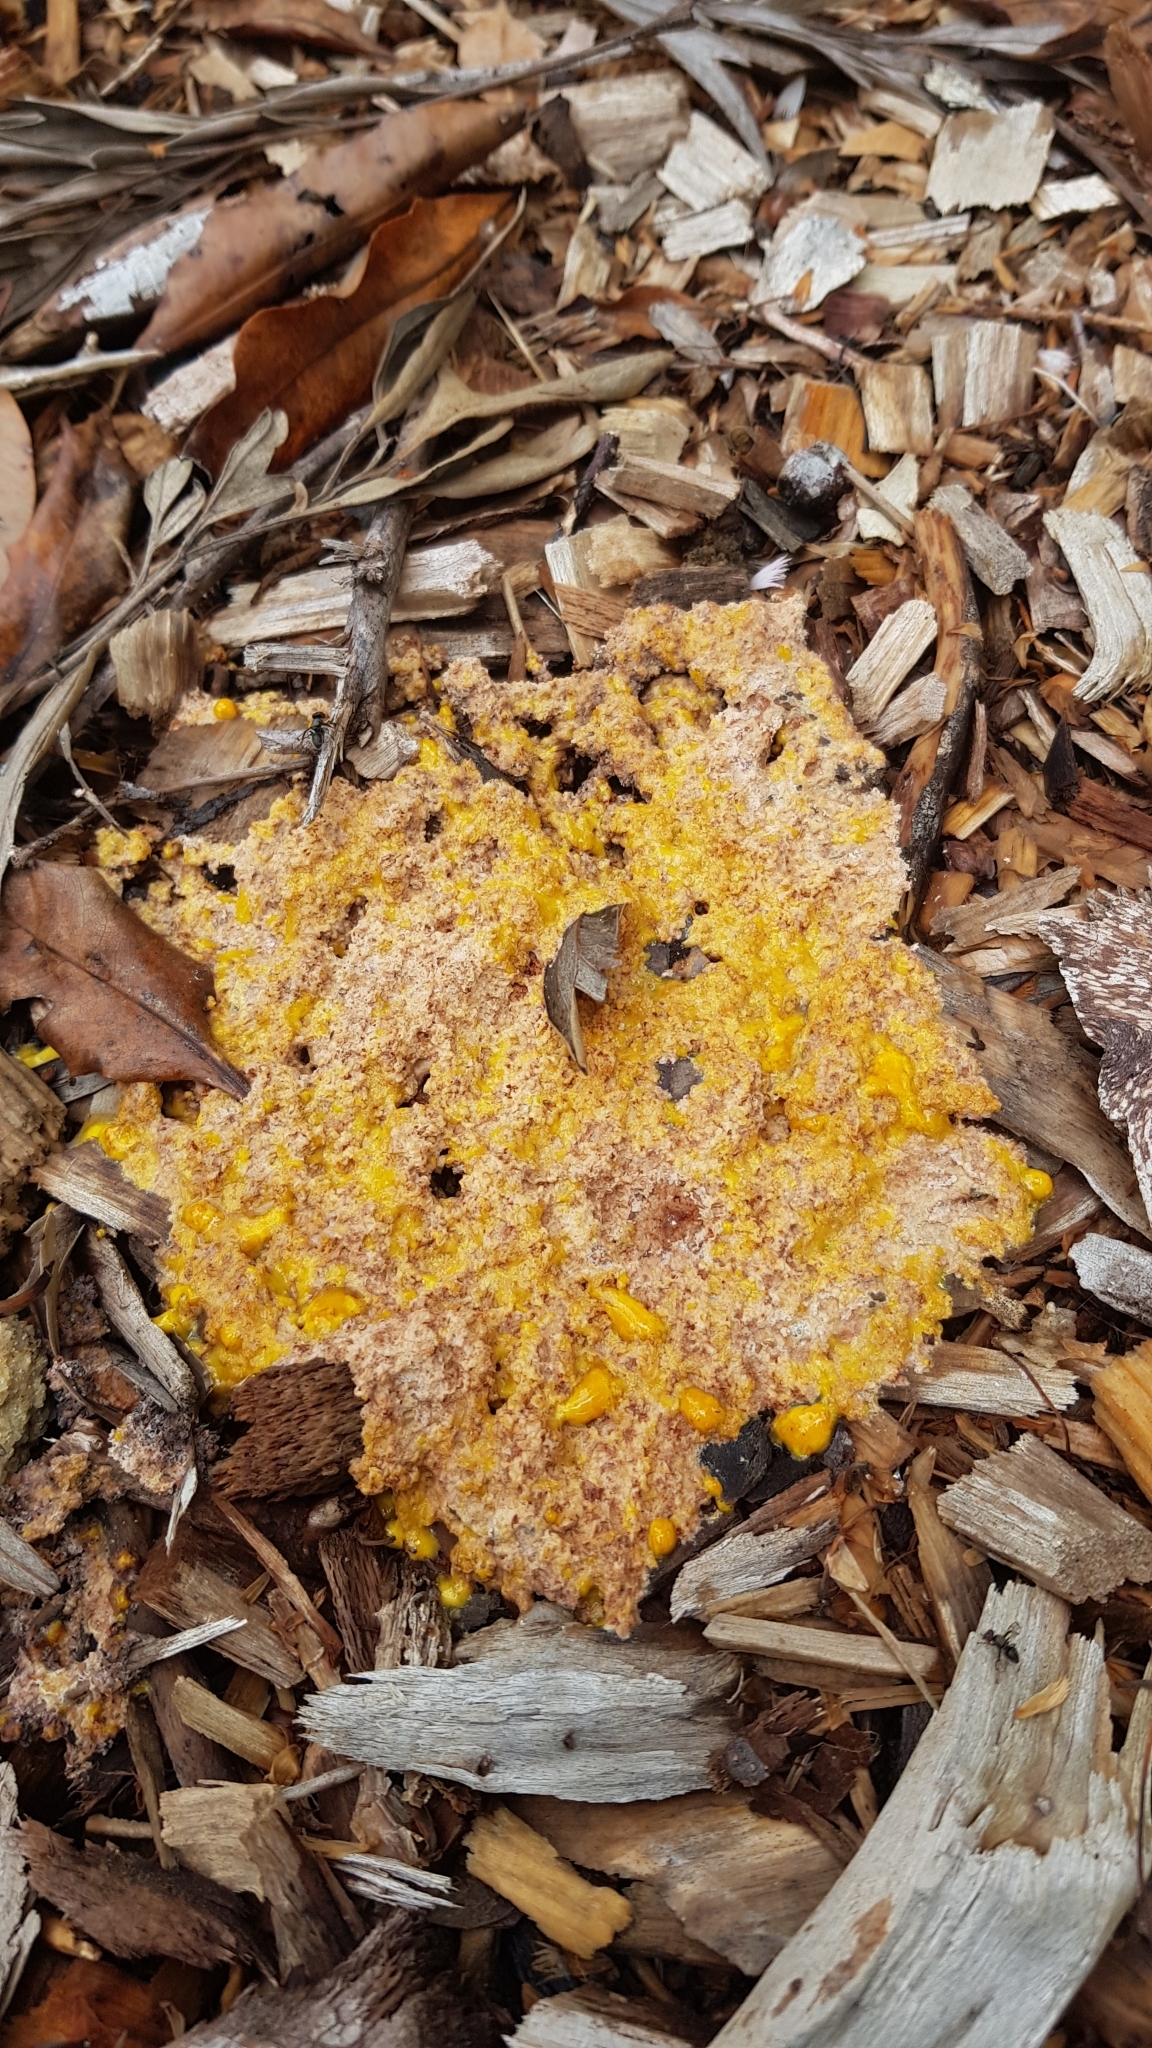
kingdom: Protozoa
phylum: Mycetozoa
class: Myxomycetes
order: Physarales
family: Physaraceae
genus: Fuligo
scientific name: Fuligo septica
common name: Dog vomit slime mold
